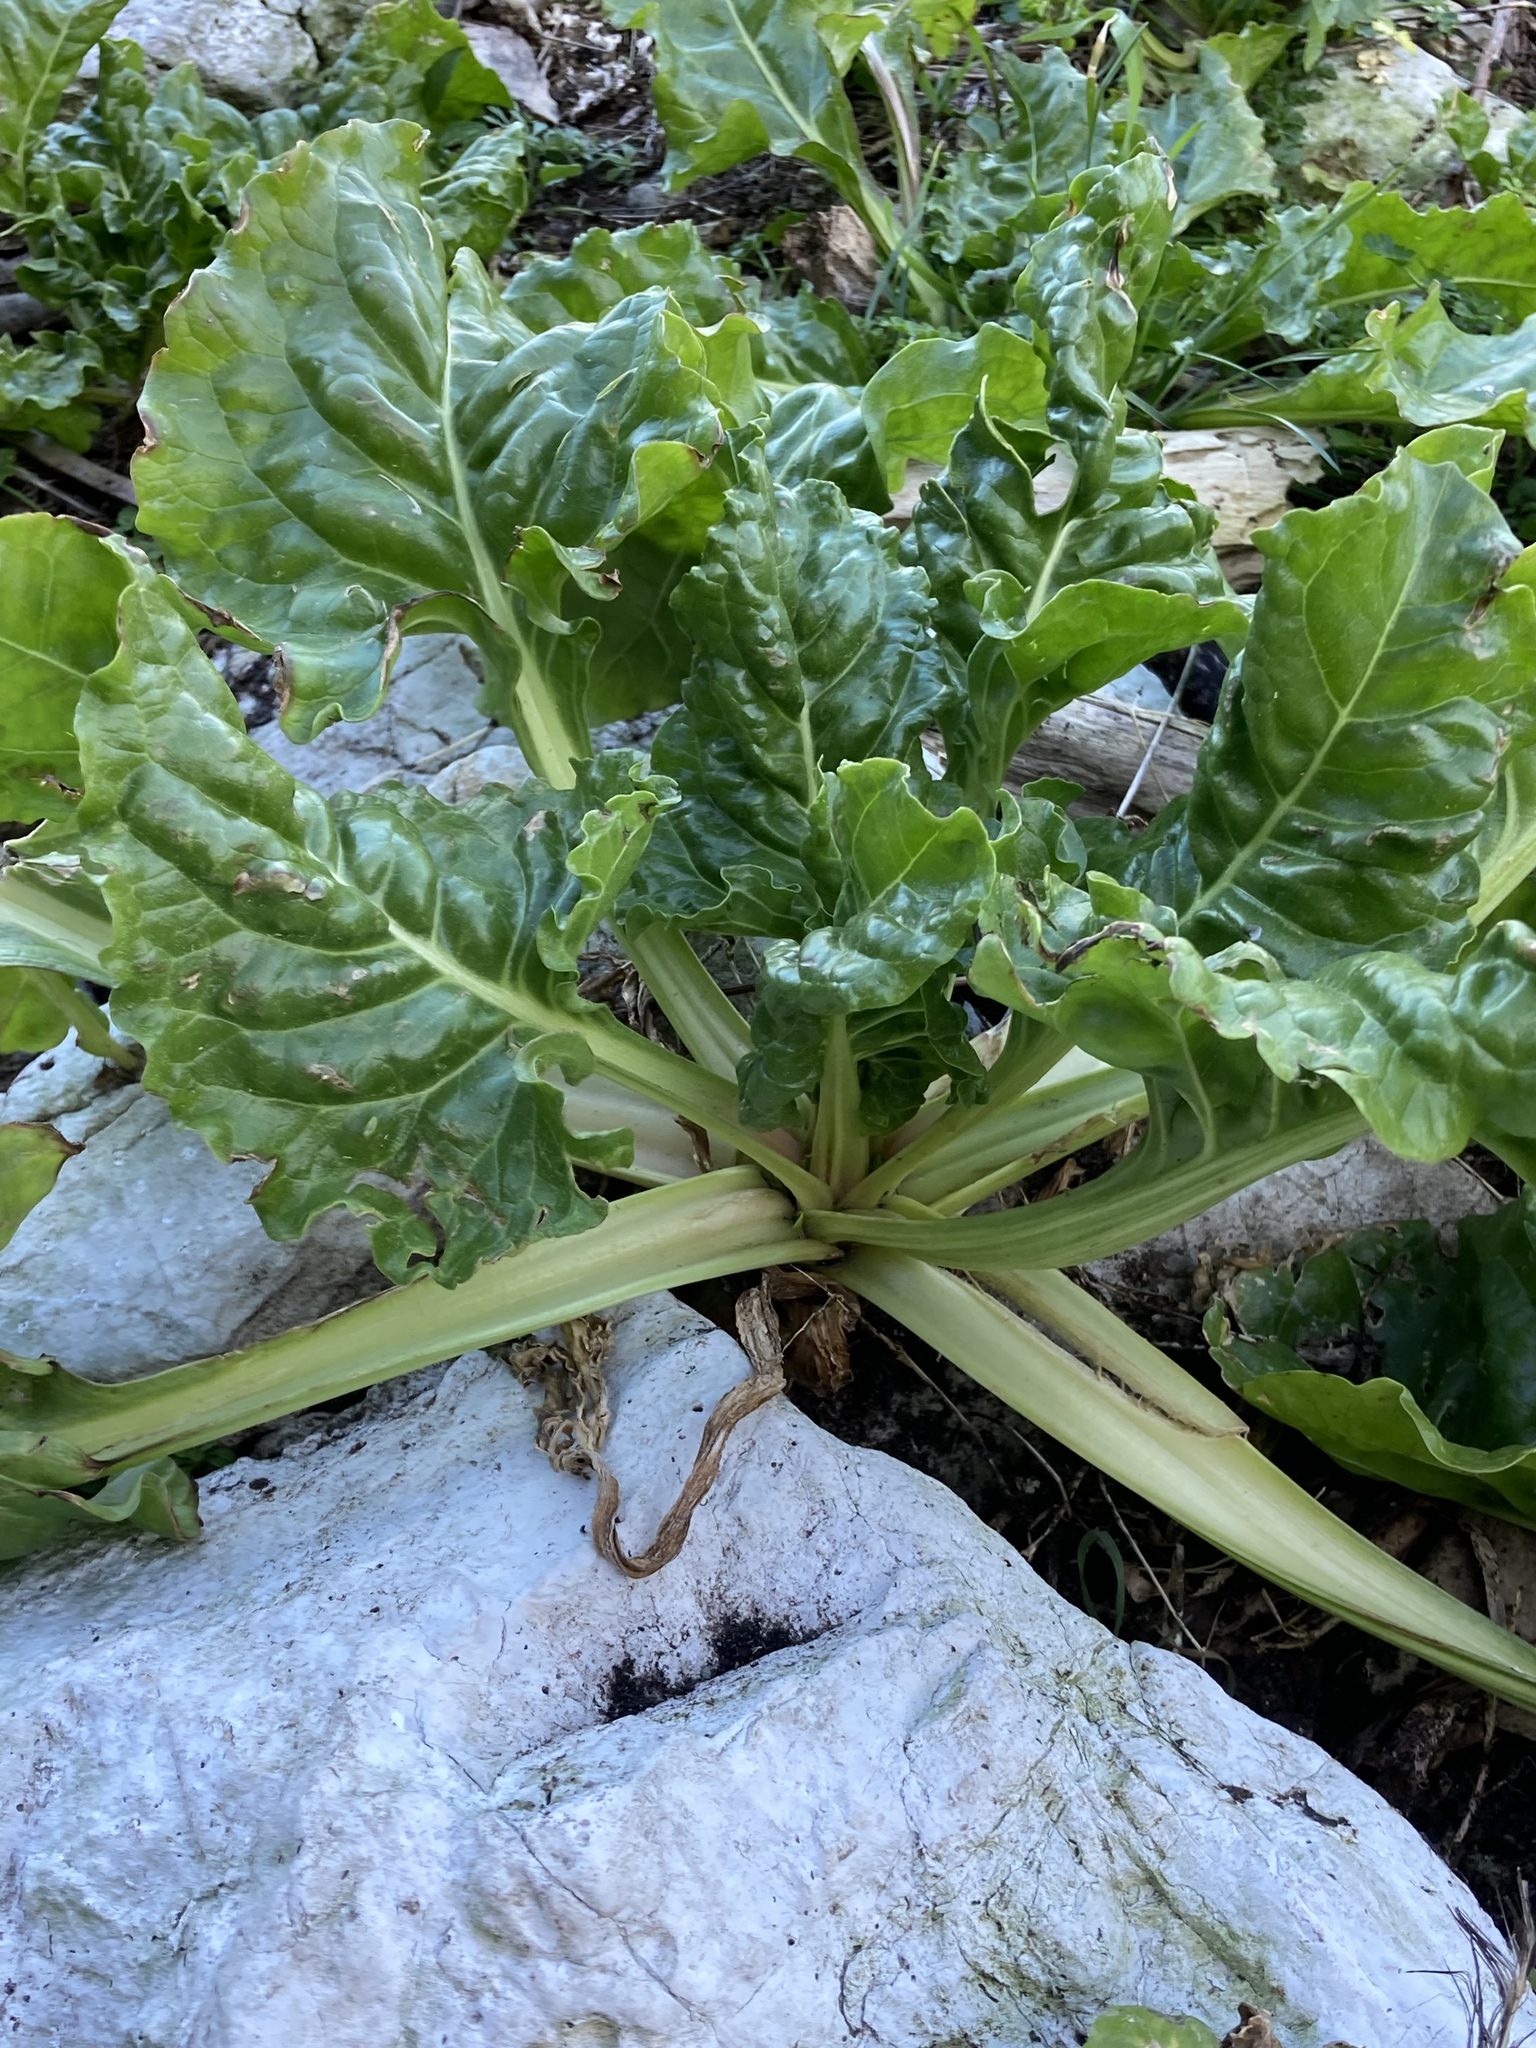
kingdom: Plantae
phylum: Tracheophyta
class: Magnoliopsida
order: Caryophyllales
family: Amaranthaceae
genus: Beta
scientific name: Beta vulgaris
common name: Beet
